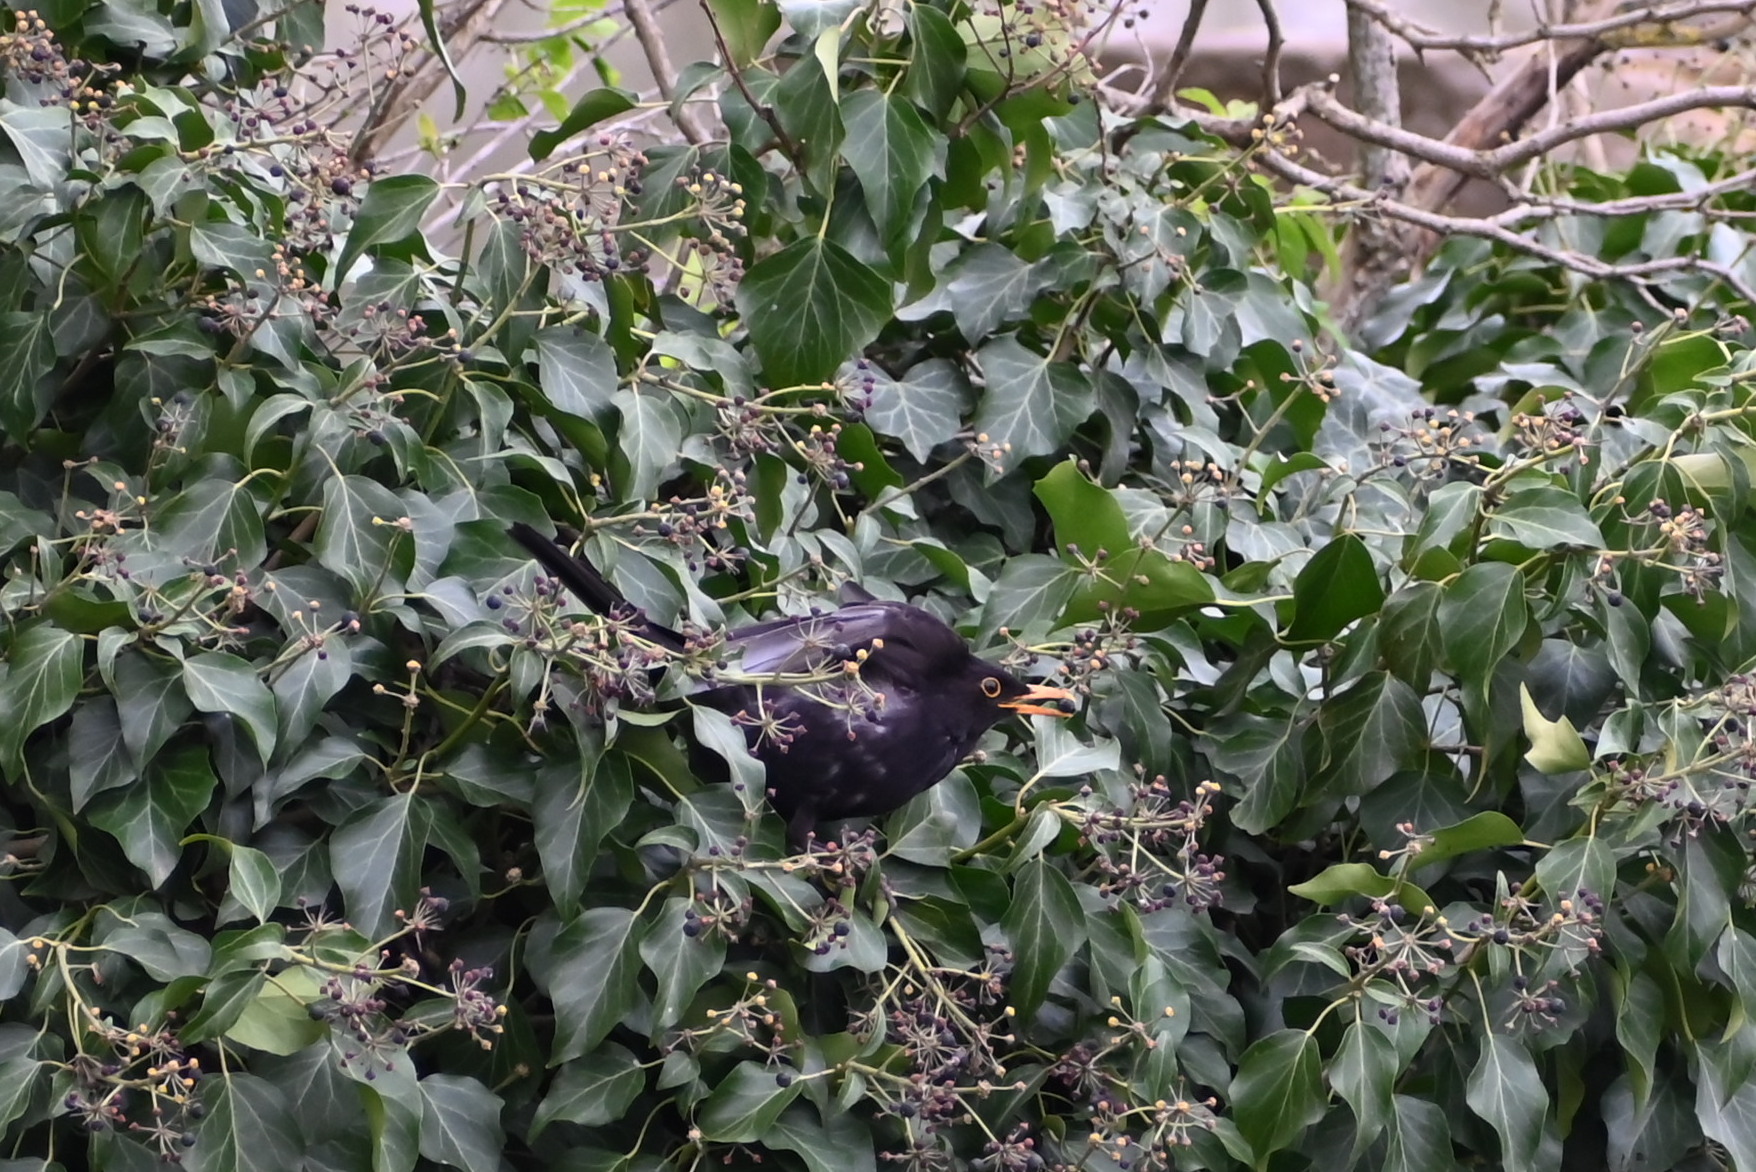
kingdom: Animalia
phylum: Chordata
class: Aves
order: Passeriformes
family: Turdidae
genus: Turdus
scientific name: Turdus merula
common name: Common blackbird
